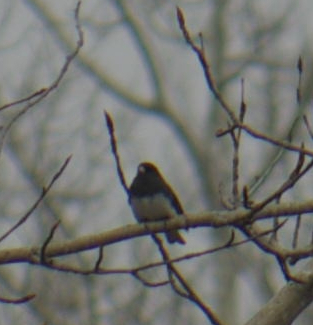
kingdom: Animalia
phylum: Chordata
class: Aves
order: Passeriformes
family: Passerellidae
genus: Junco
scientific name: Junco hyemalis
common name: Dark-eyed junco
